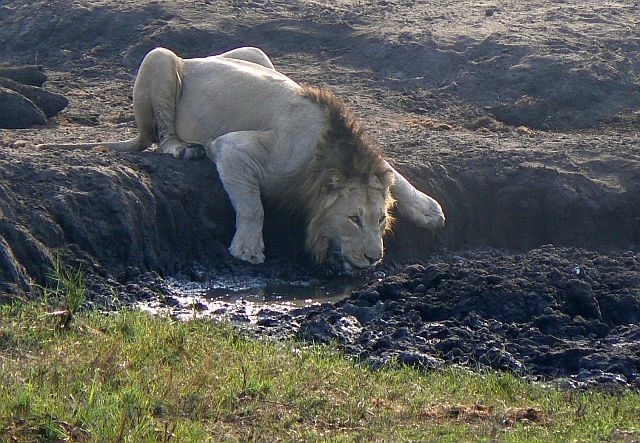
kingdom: Animalia
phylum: Chordata
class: Mammalia
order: Carnivora
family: Felidae
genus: Panthera
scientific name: Panthera leo
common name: Lion
